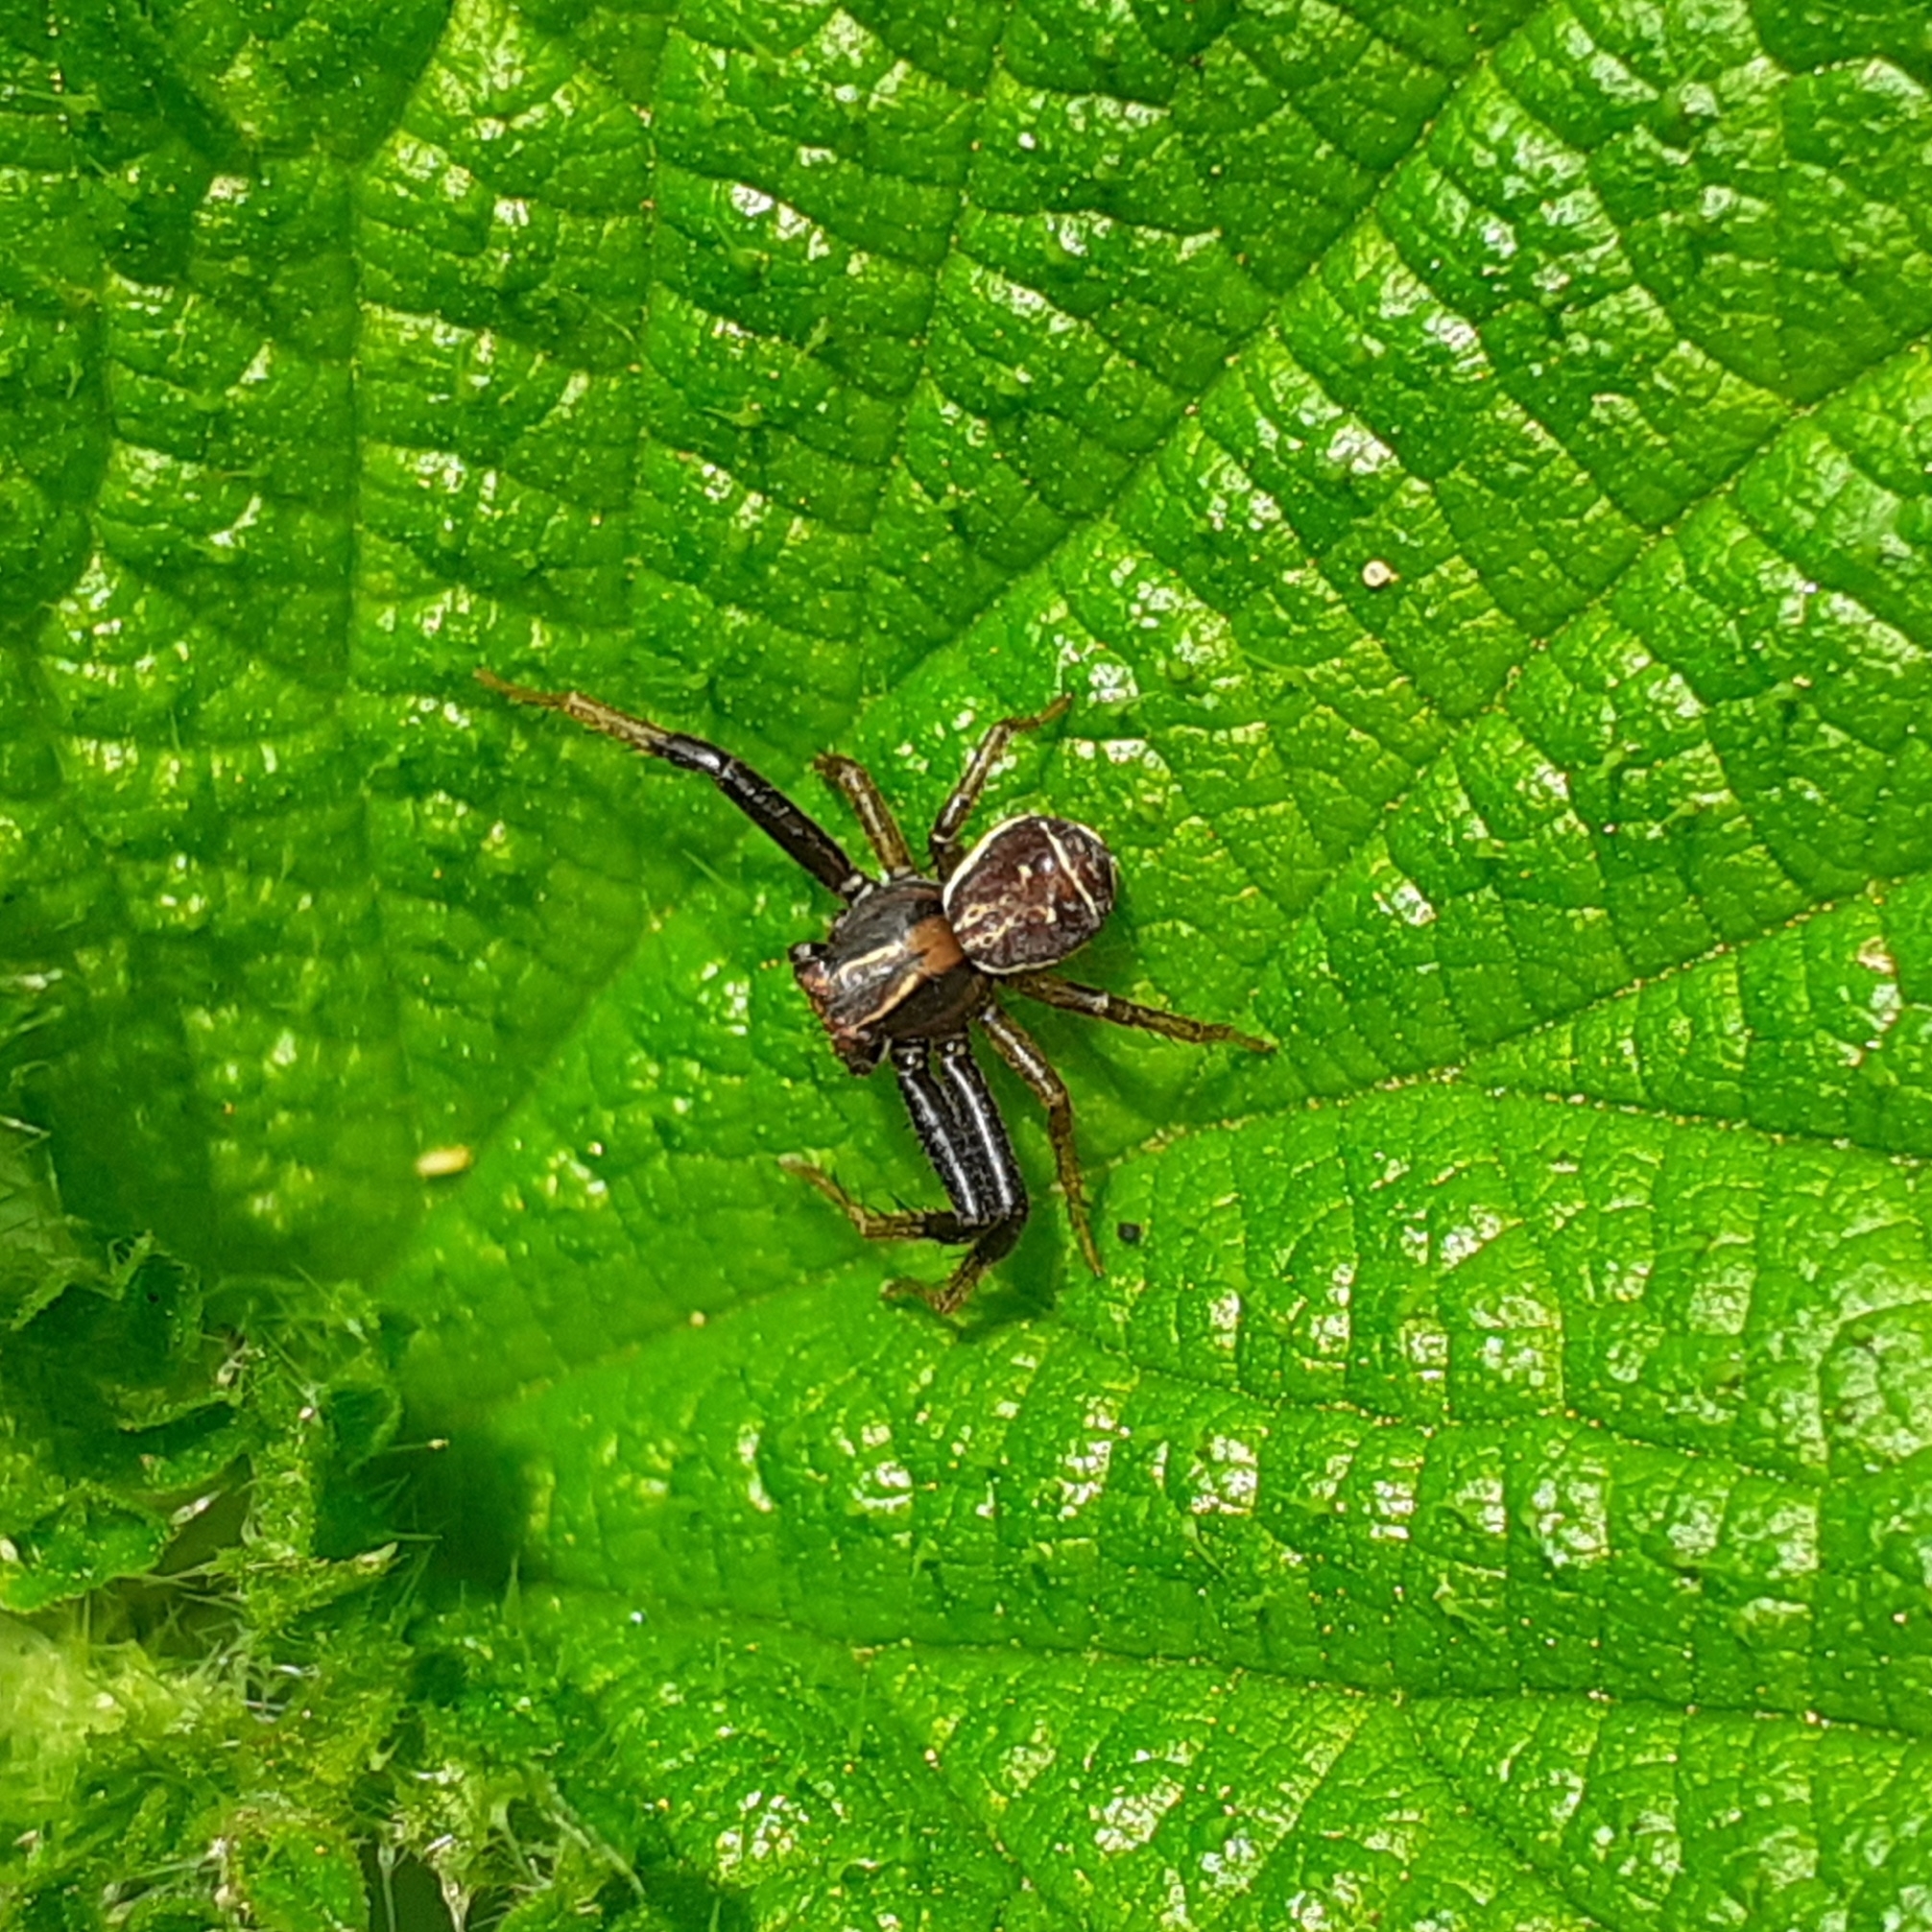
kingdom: Animalia
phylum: Arthropoda
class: Arachnida
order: Araneae
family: Thomisidae
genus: Xysticus
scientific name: Xysticus ulmi
